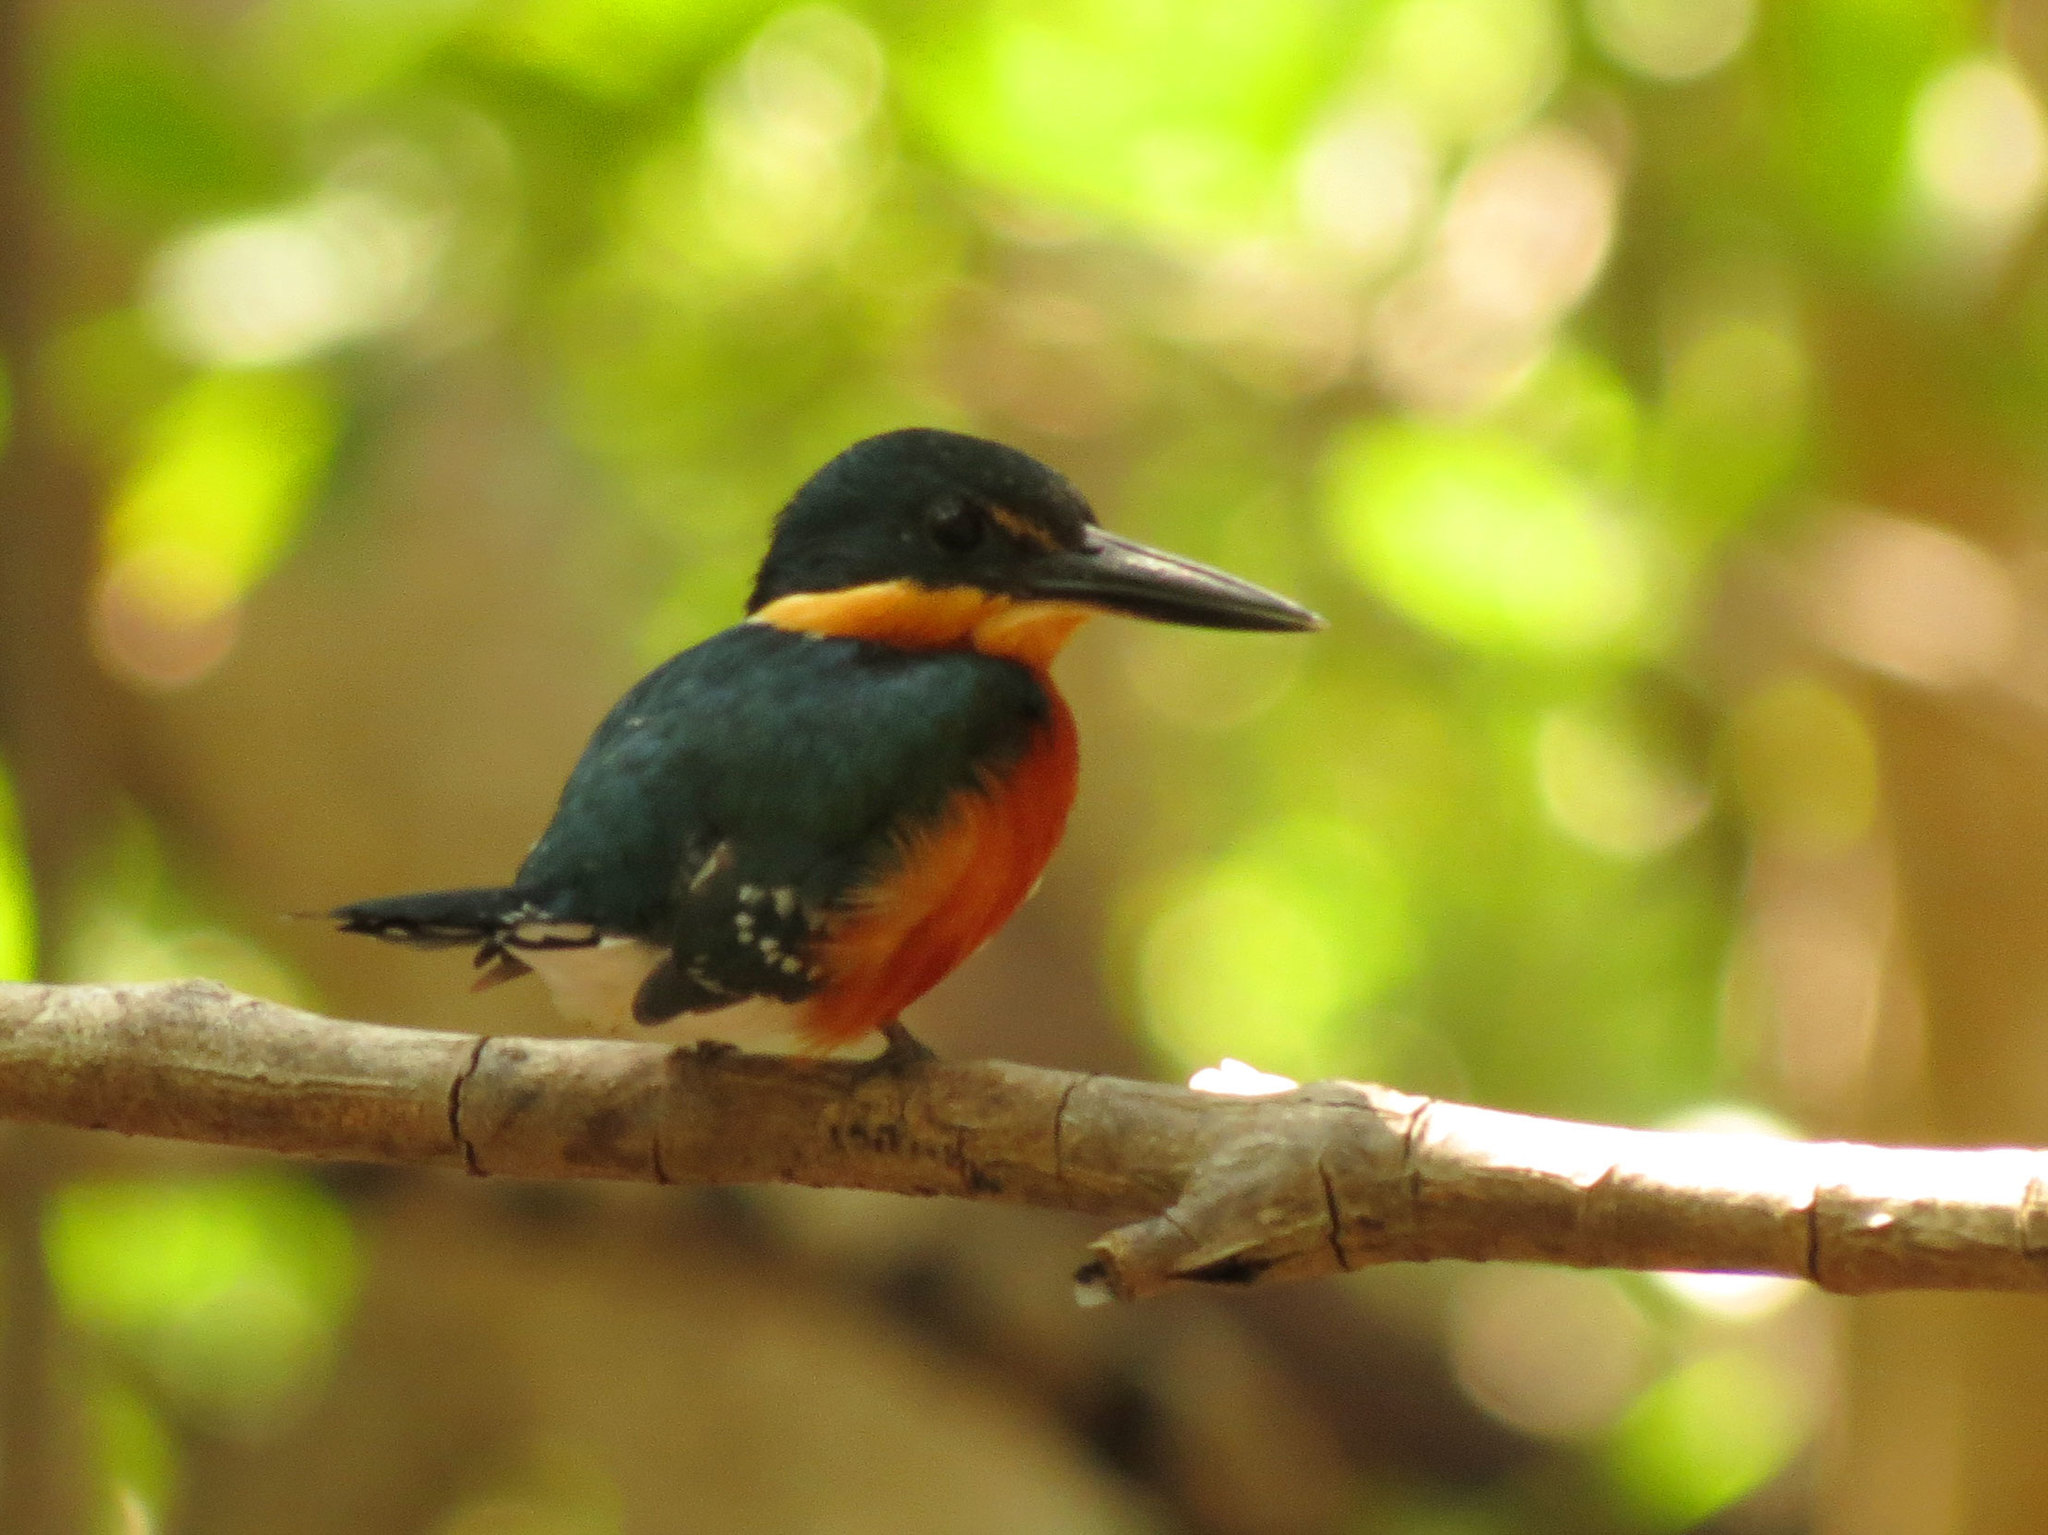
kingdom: Animalia
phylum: Chordata
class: Aves
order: Coraciiformes
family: Alcedinidae
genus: Chloroceryle
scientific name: Chloroceryle aenea
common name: American pygmy kingfisher
